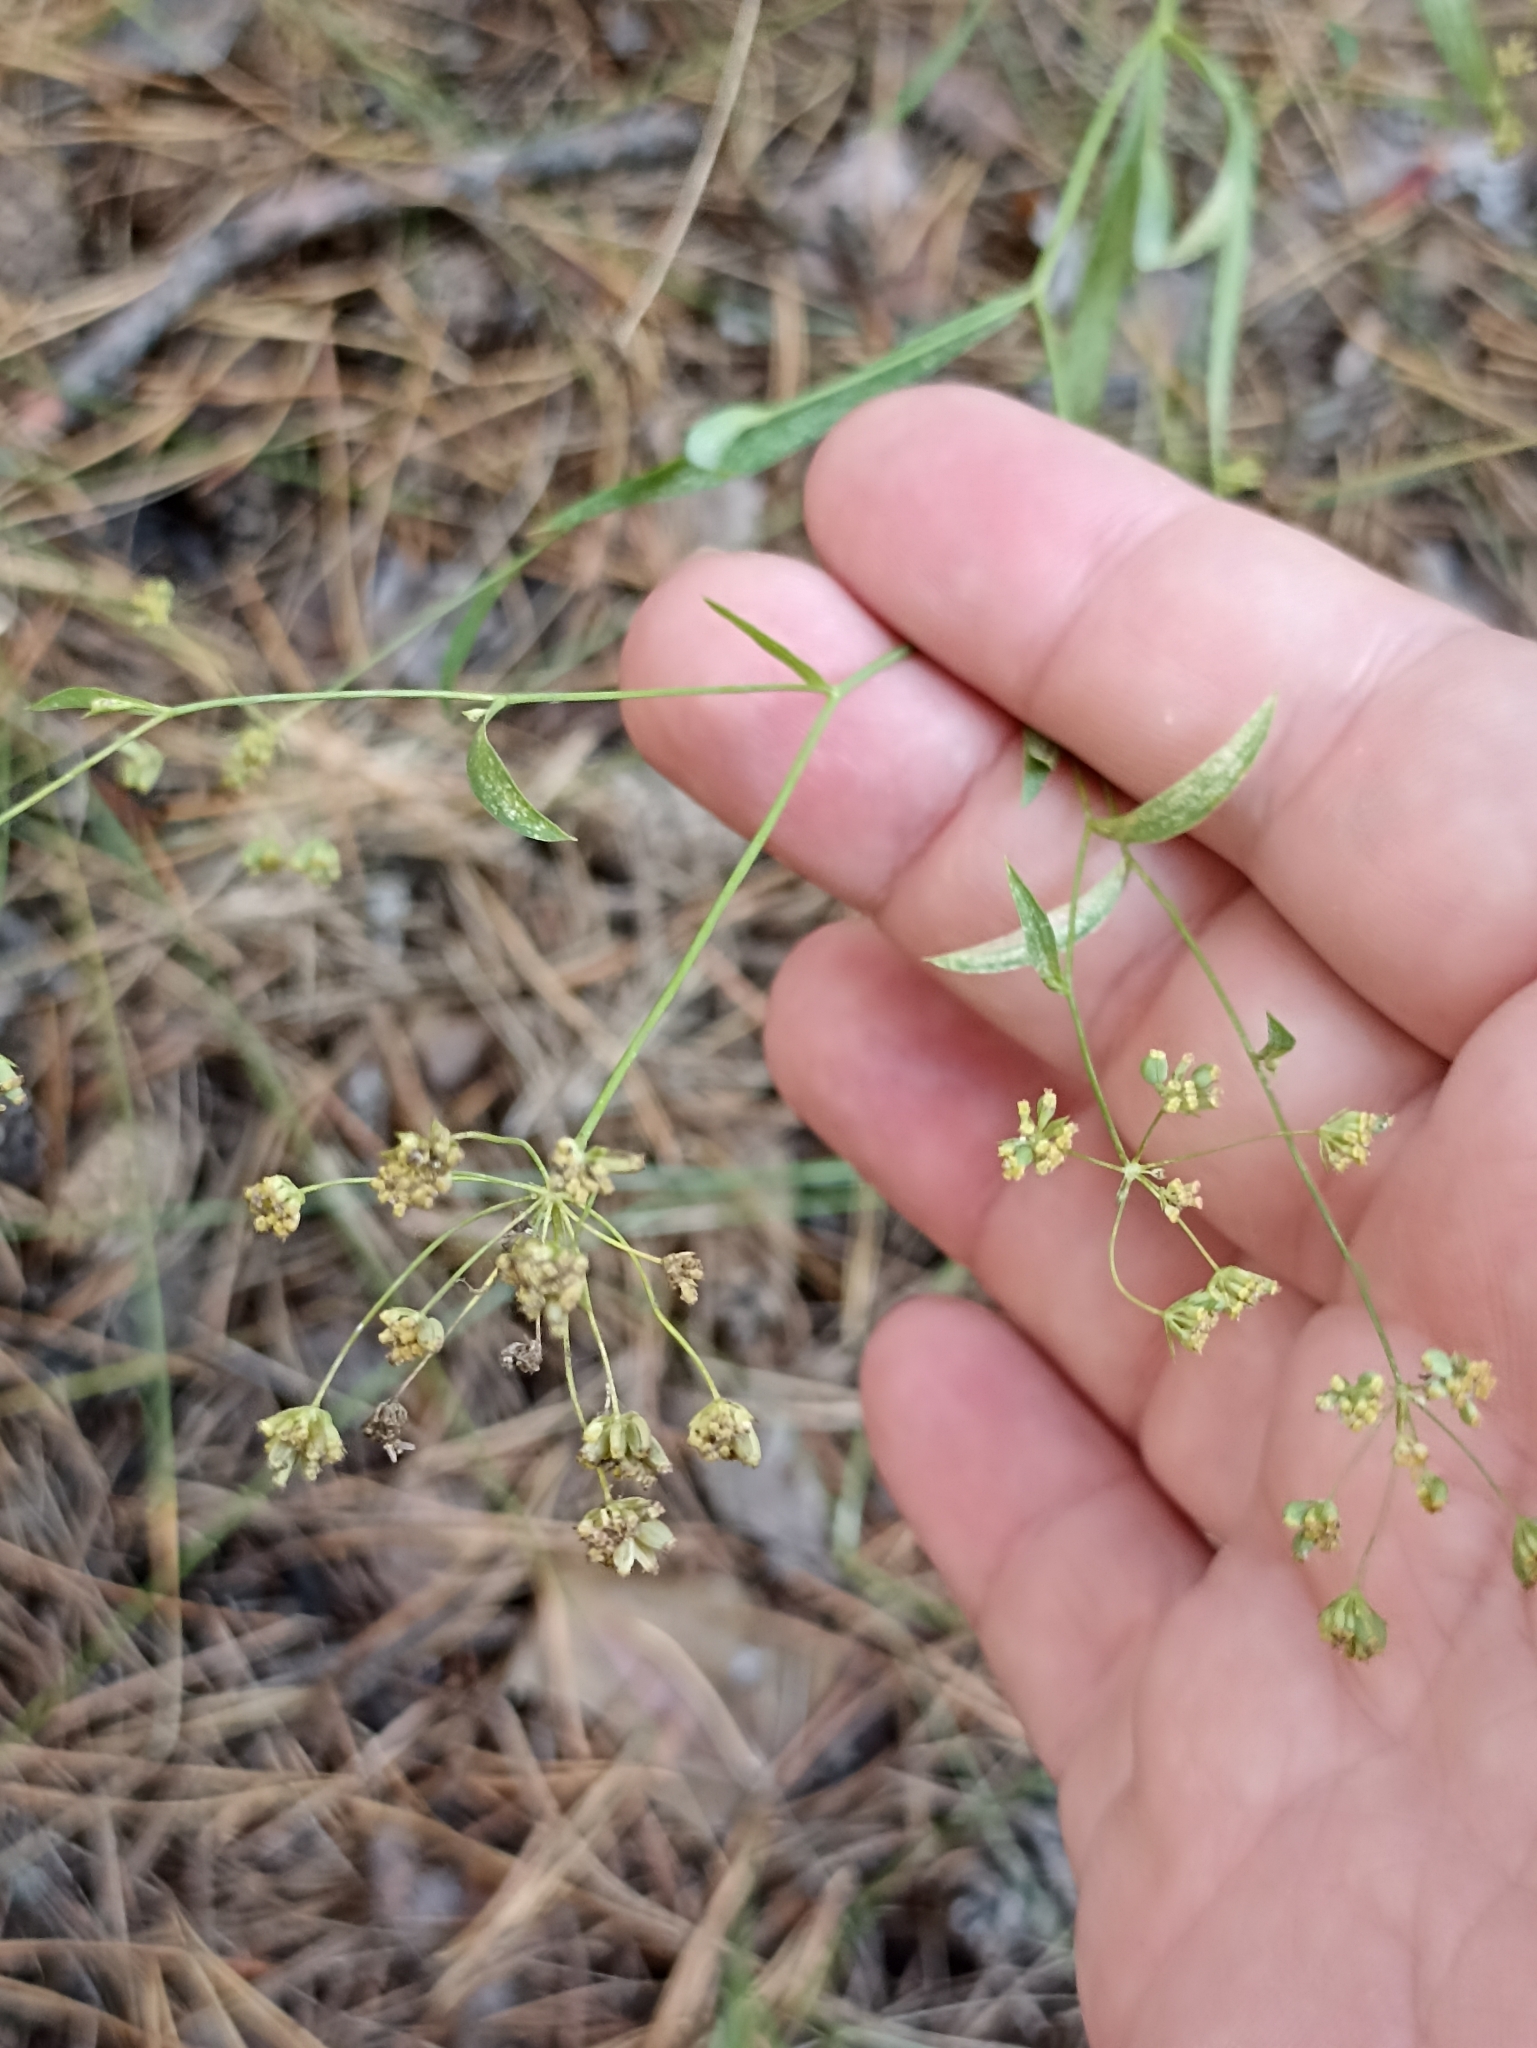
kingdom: Plantae
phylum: Tracheophyta
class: Magnoliopsida
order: Apiales
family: Apiaceae
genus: Bupleurum
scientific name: Bupleurum scorzonerifolium
